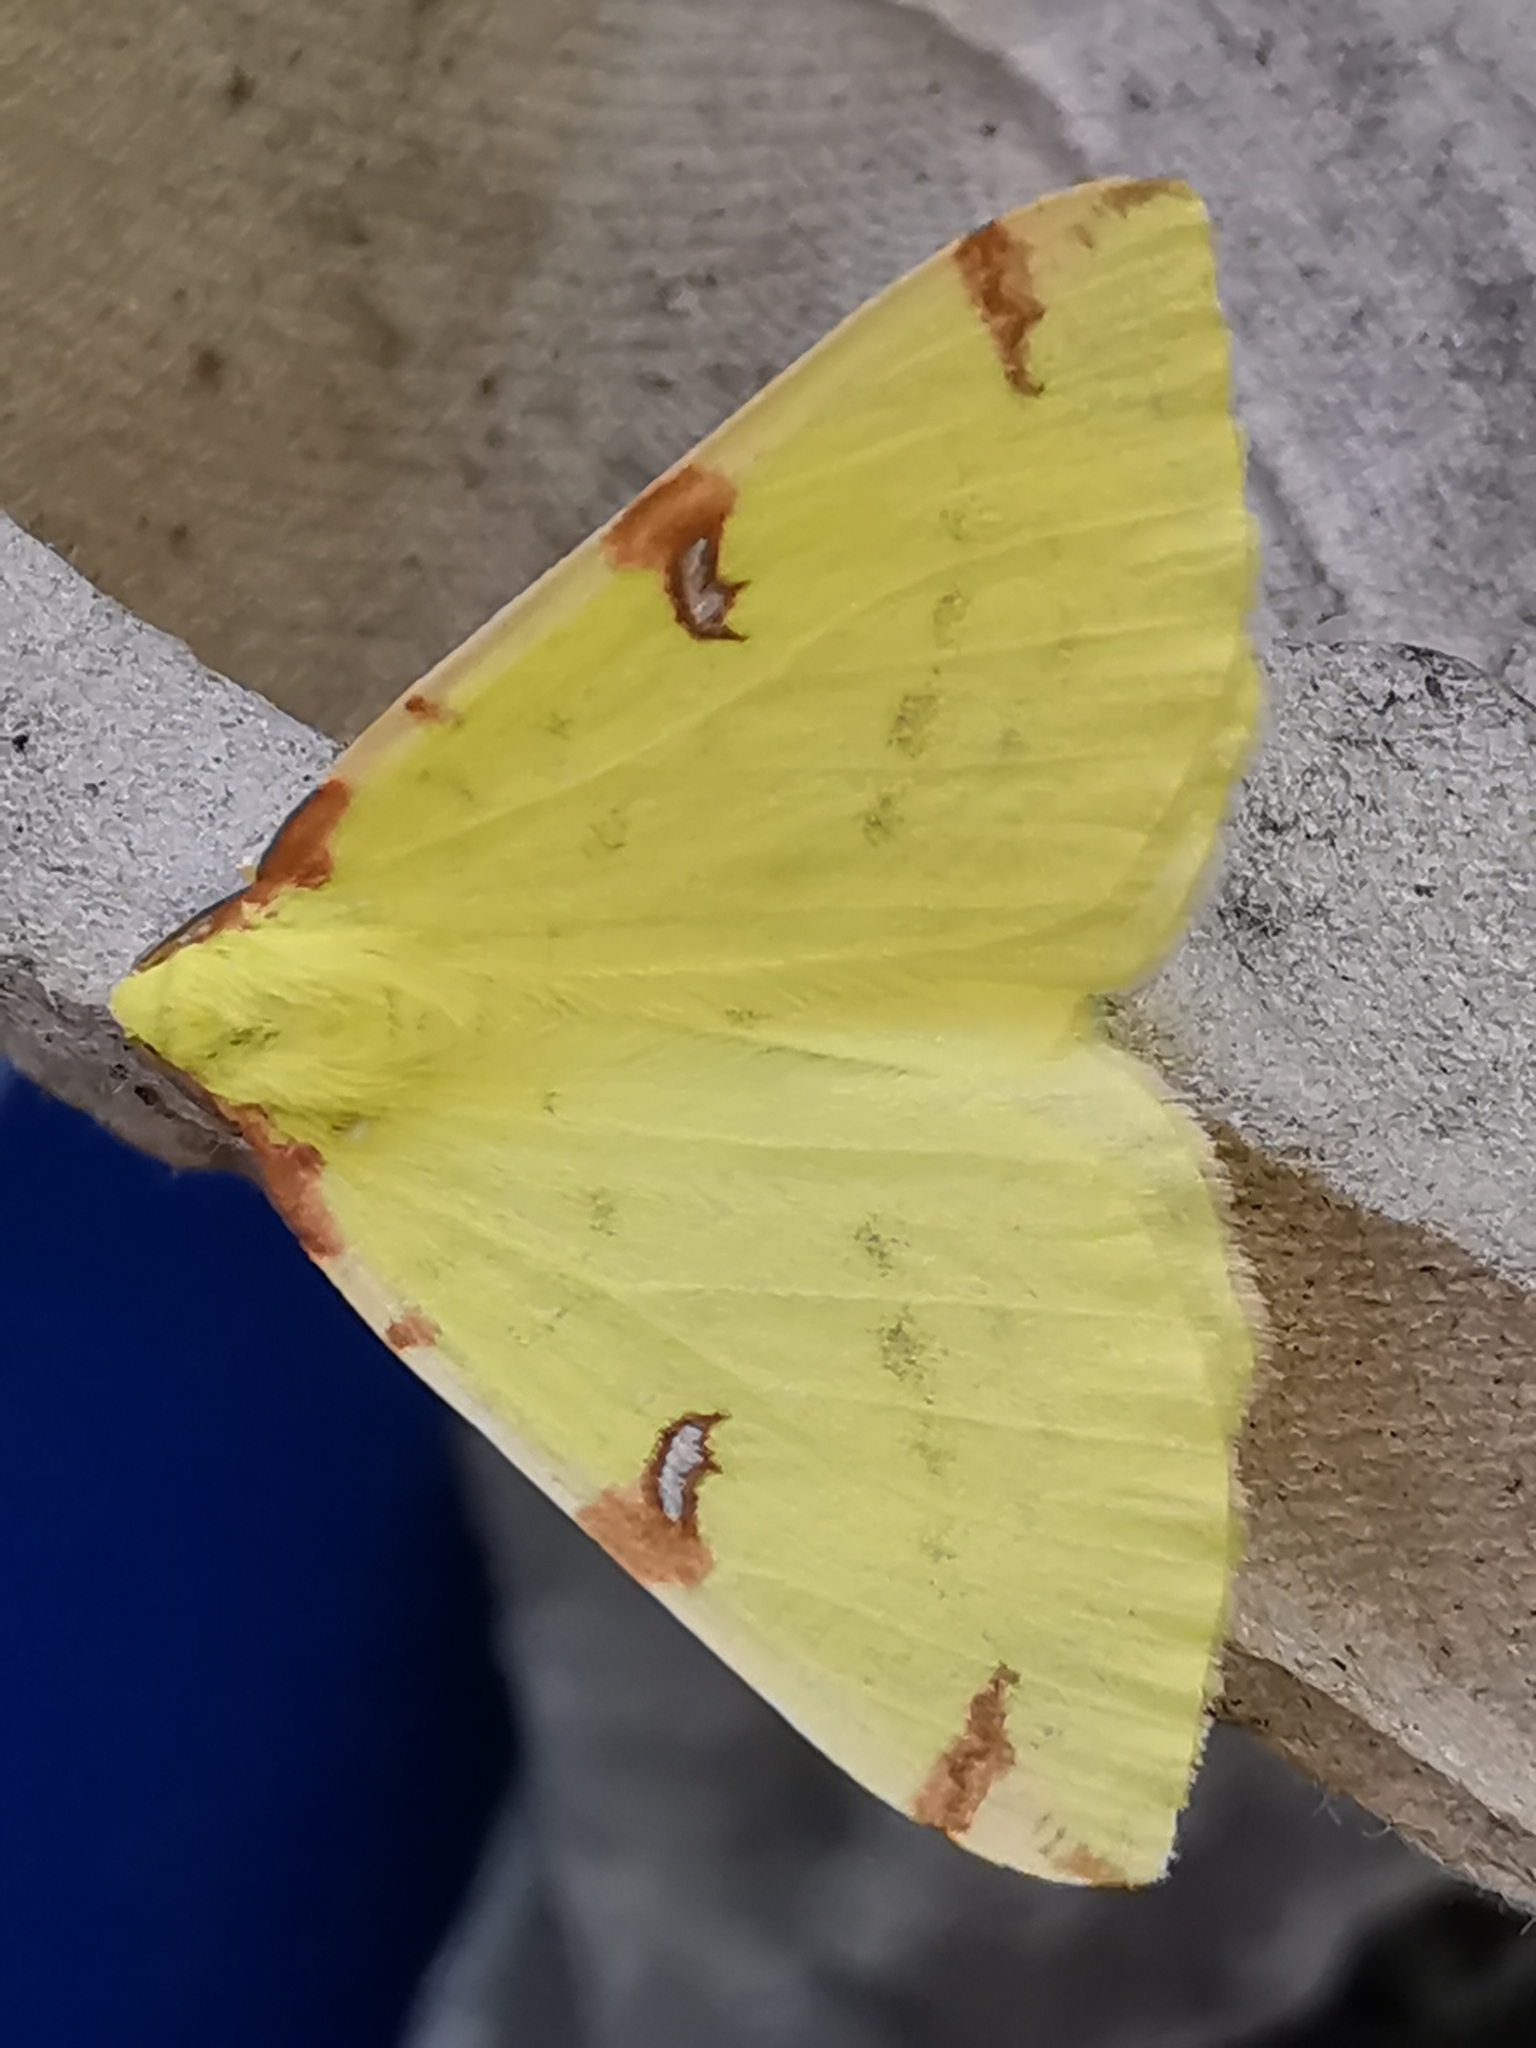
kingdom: Animalia
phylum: Arthropoda
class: Insecta
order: Lepidoptera
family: Geometridae
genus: Opisthograptis
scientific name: Opisthograptis luteolata
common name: Brimstone moth
